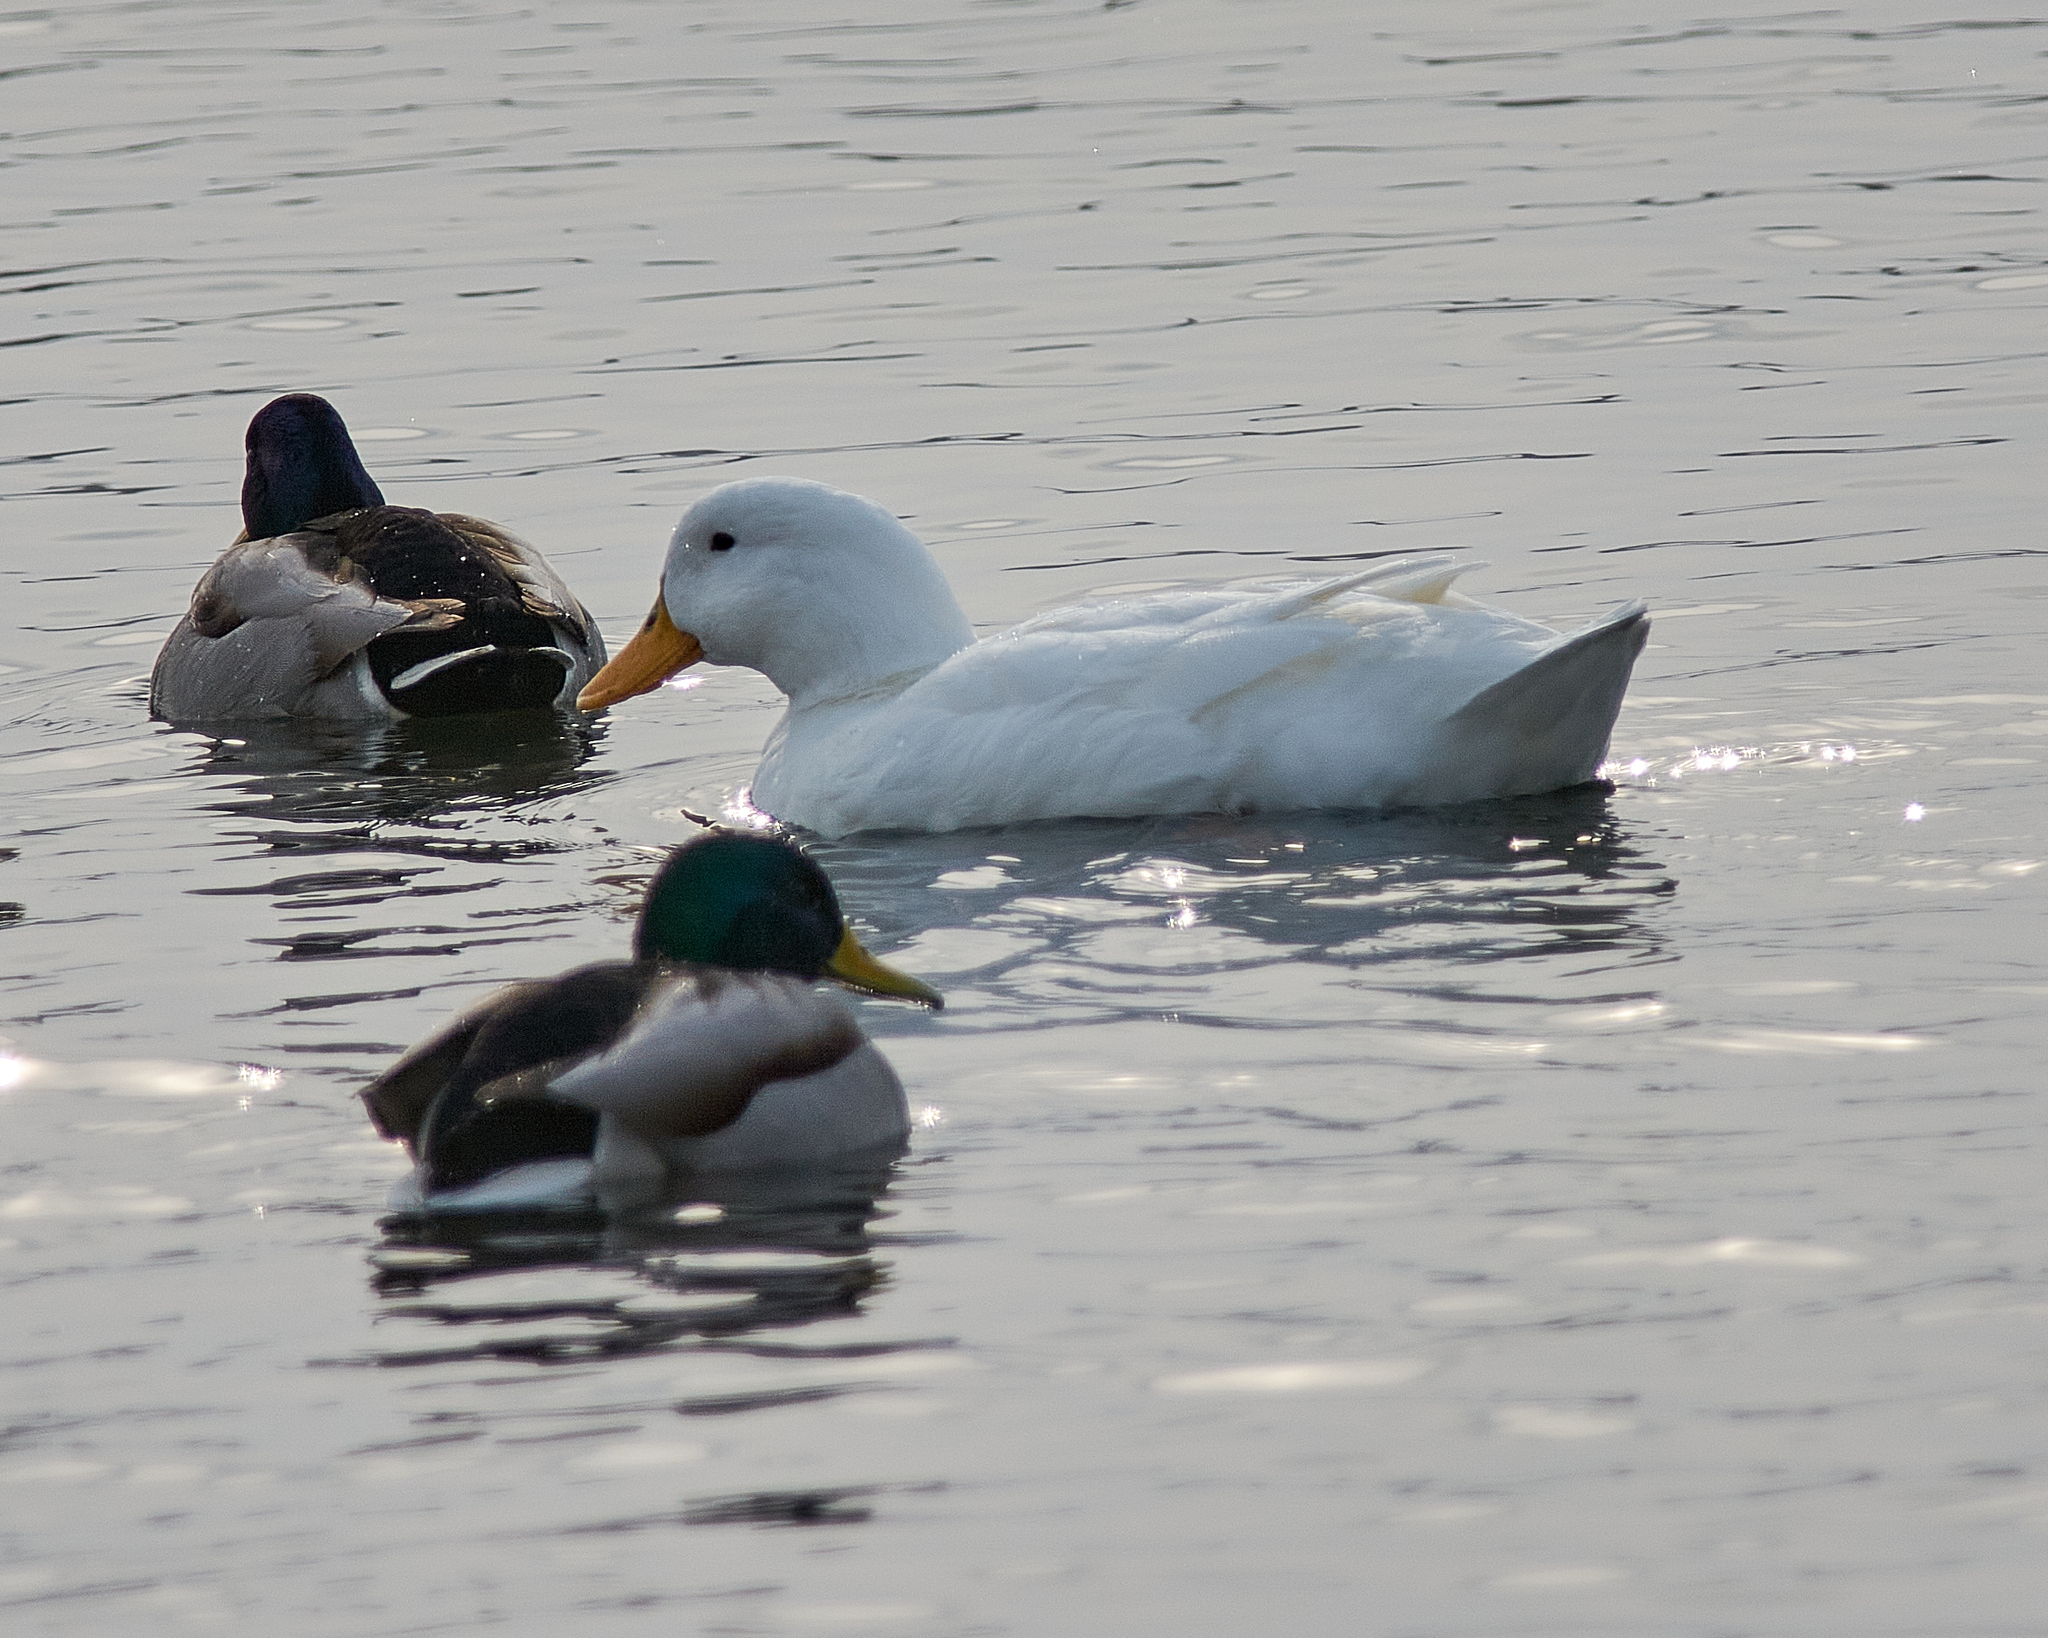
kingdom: Animalia
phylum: Chordata
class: Aves
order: Anseriformes
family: Anatidae
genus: Anas
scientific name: Anas platyrhynchos
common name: Mallard
